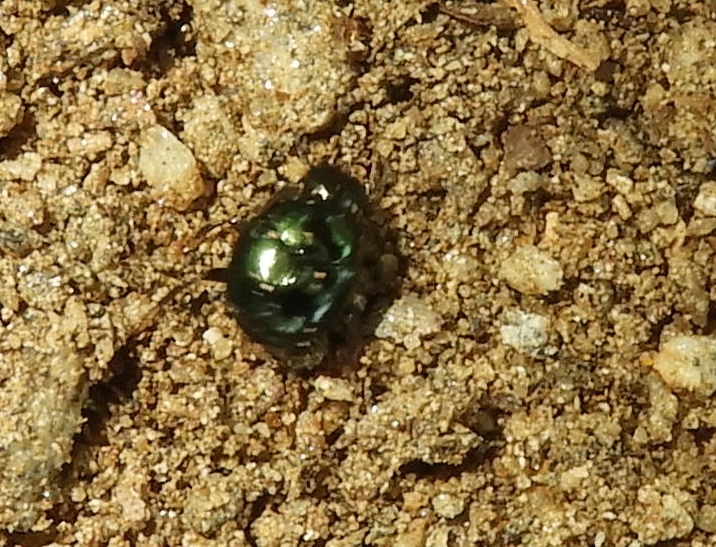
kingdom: Animalia
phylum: Arthropoda
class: Insecta
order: Coleoptera
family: Scarabaeidae
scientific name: Scarabaeidae
